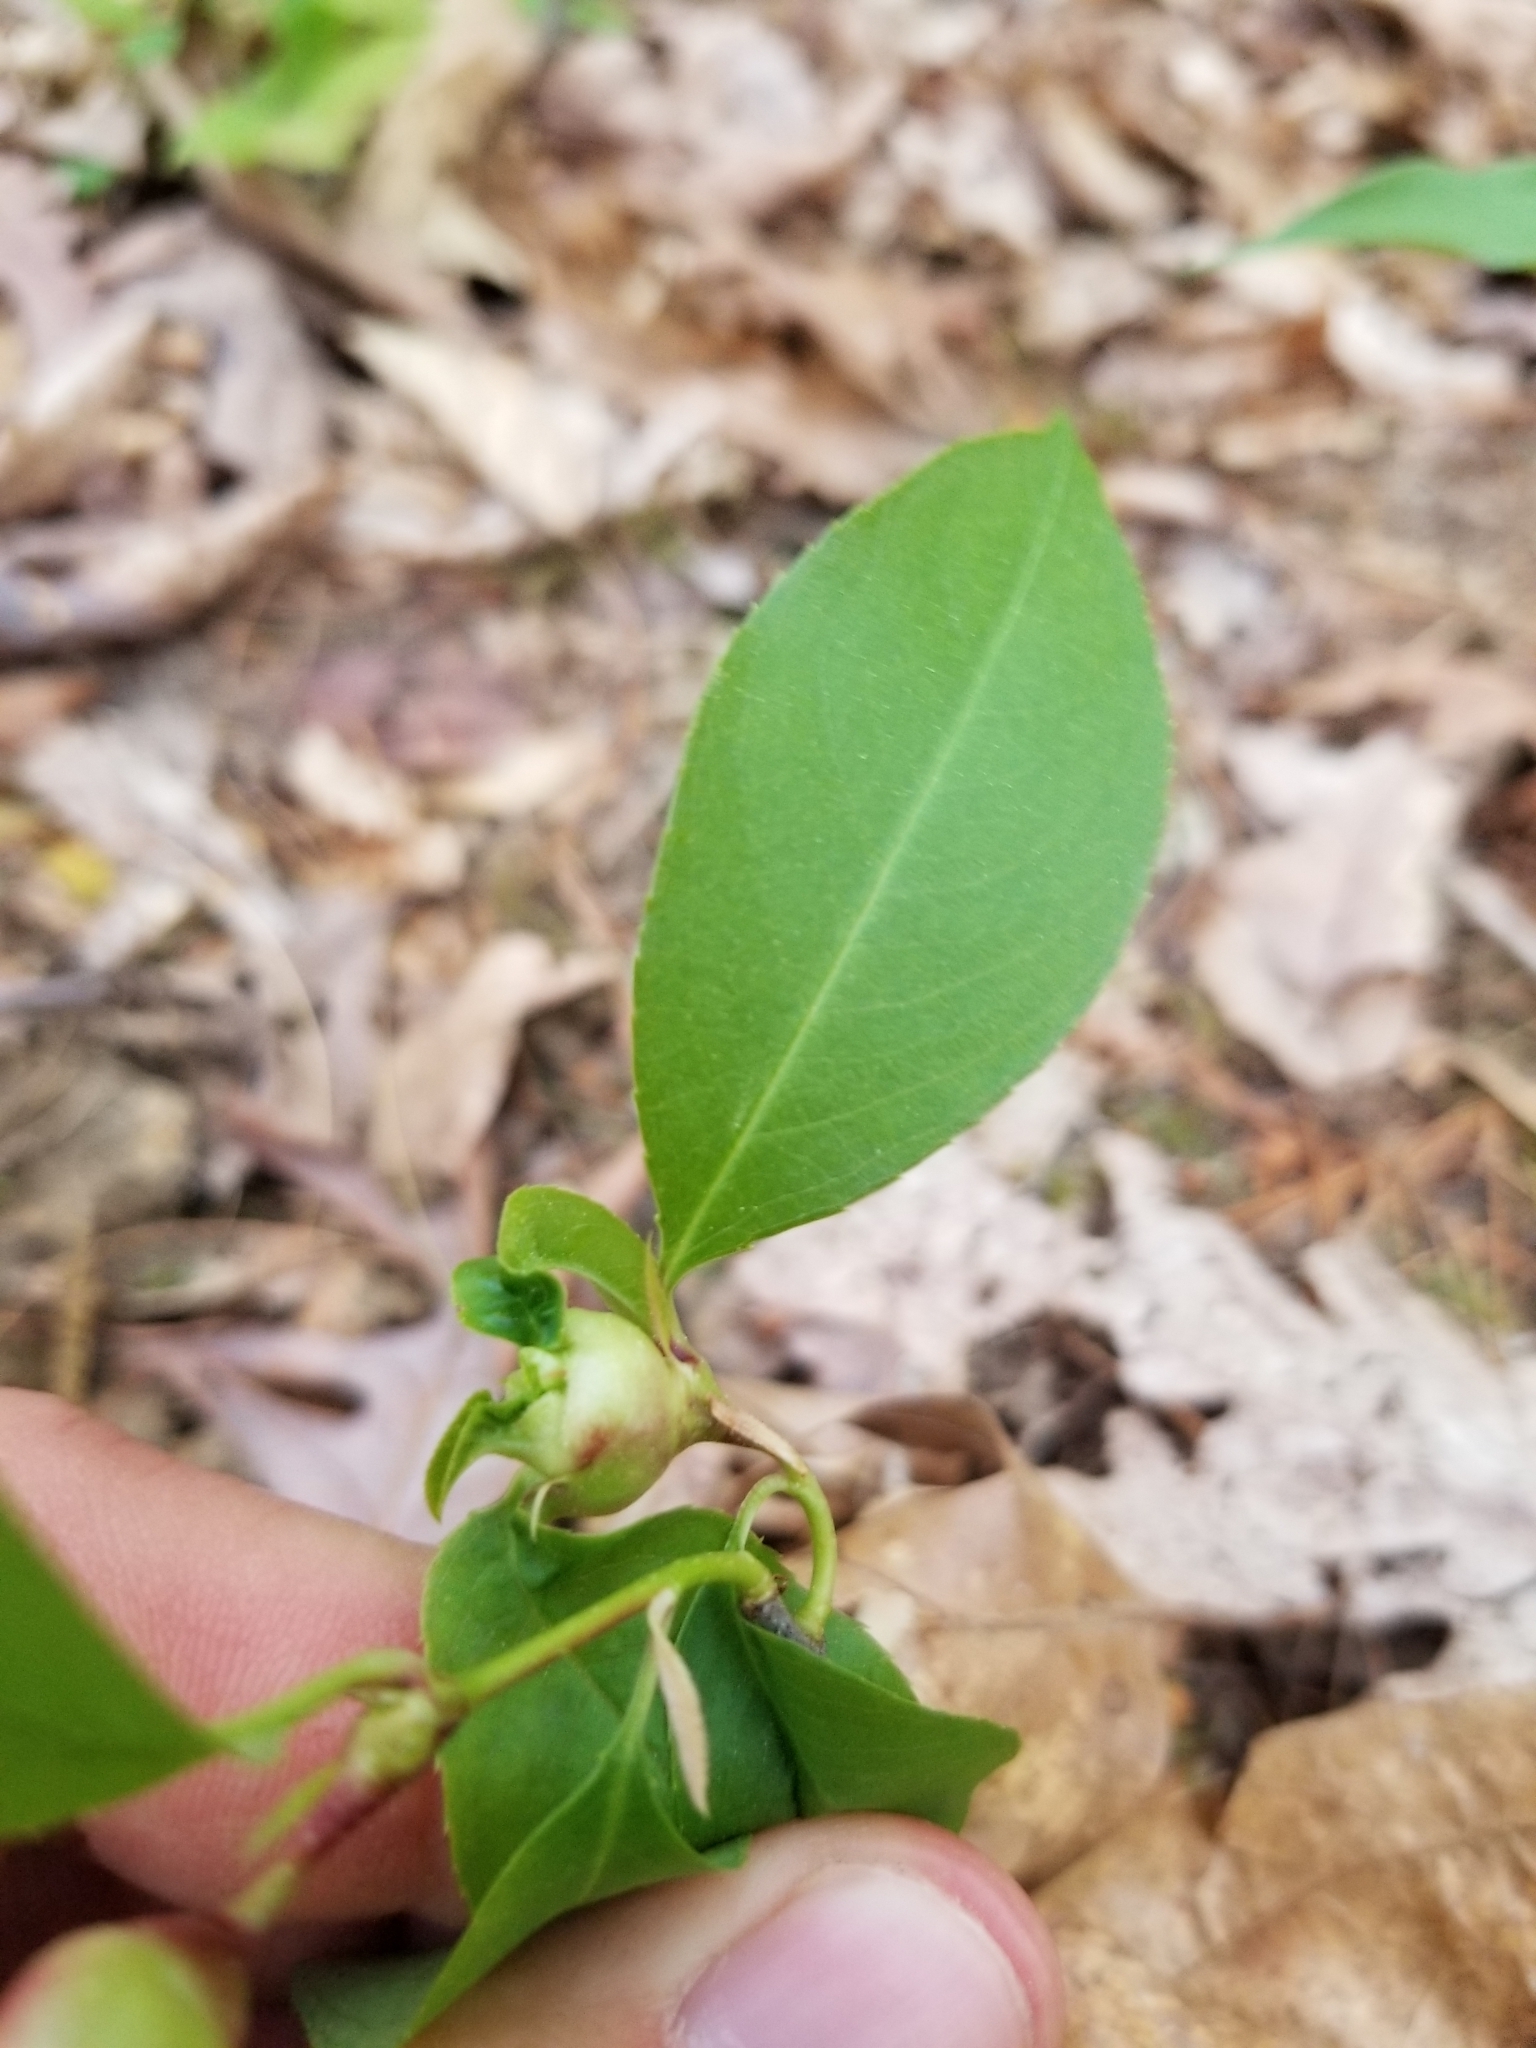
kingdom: Animalia
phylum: Arthropoda
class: Insecta
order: Diptera
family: Cecidomyiidae
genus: Contarinia
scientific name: Contarinia cerasiserotinae
